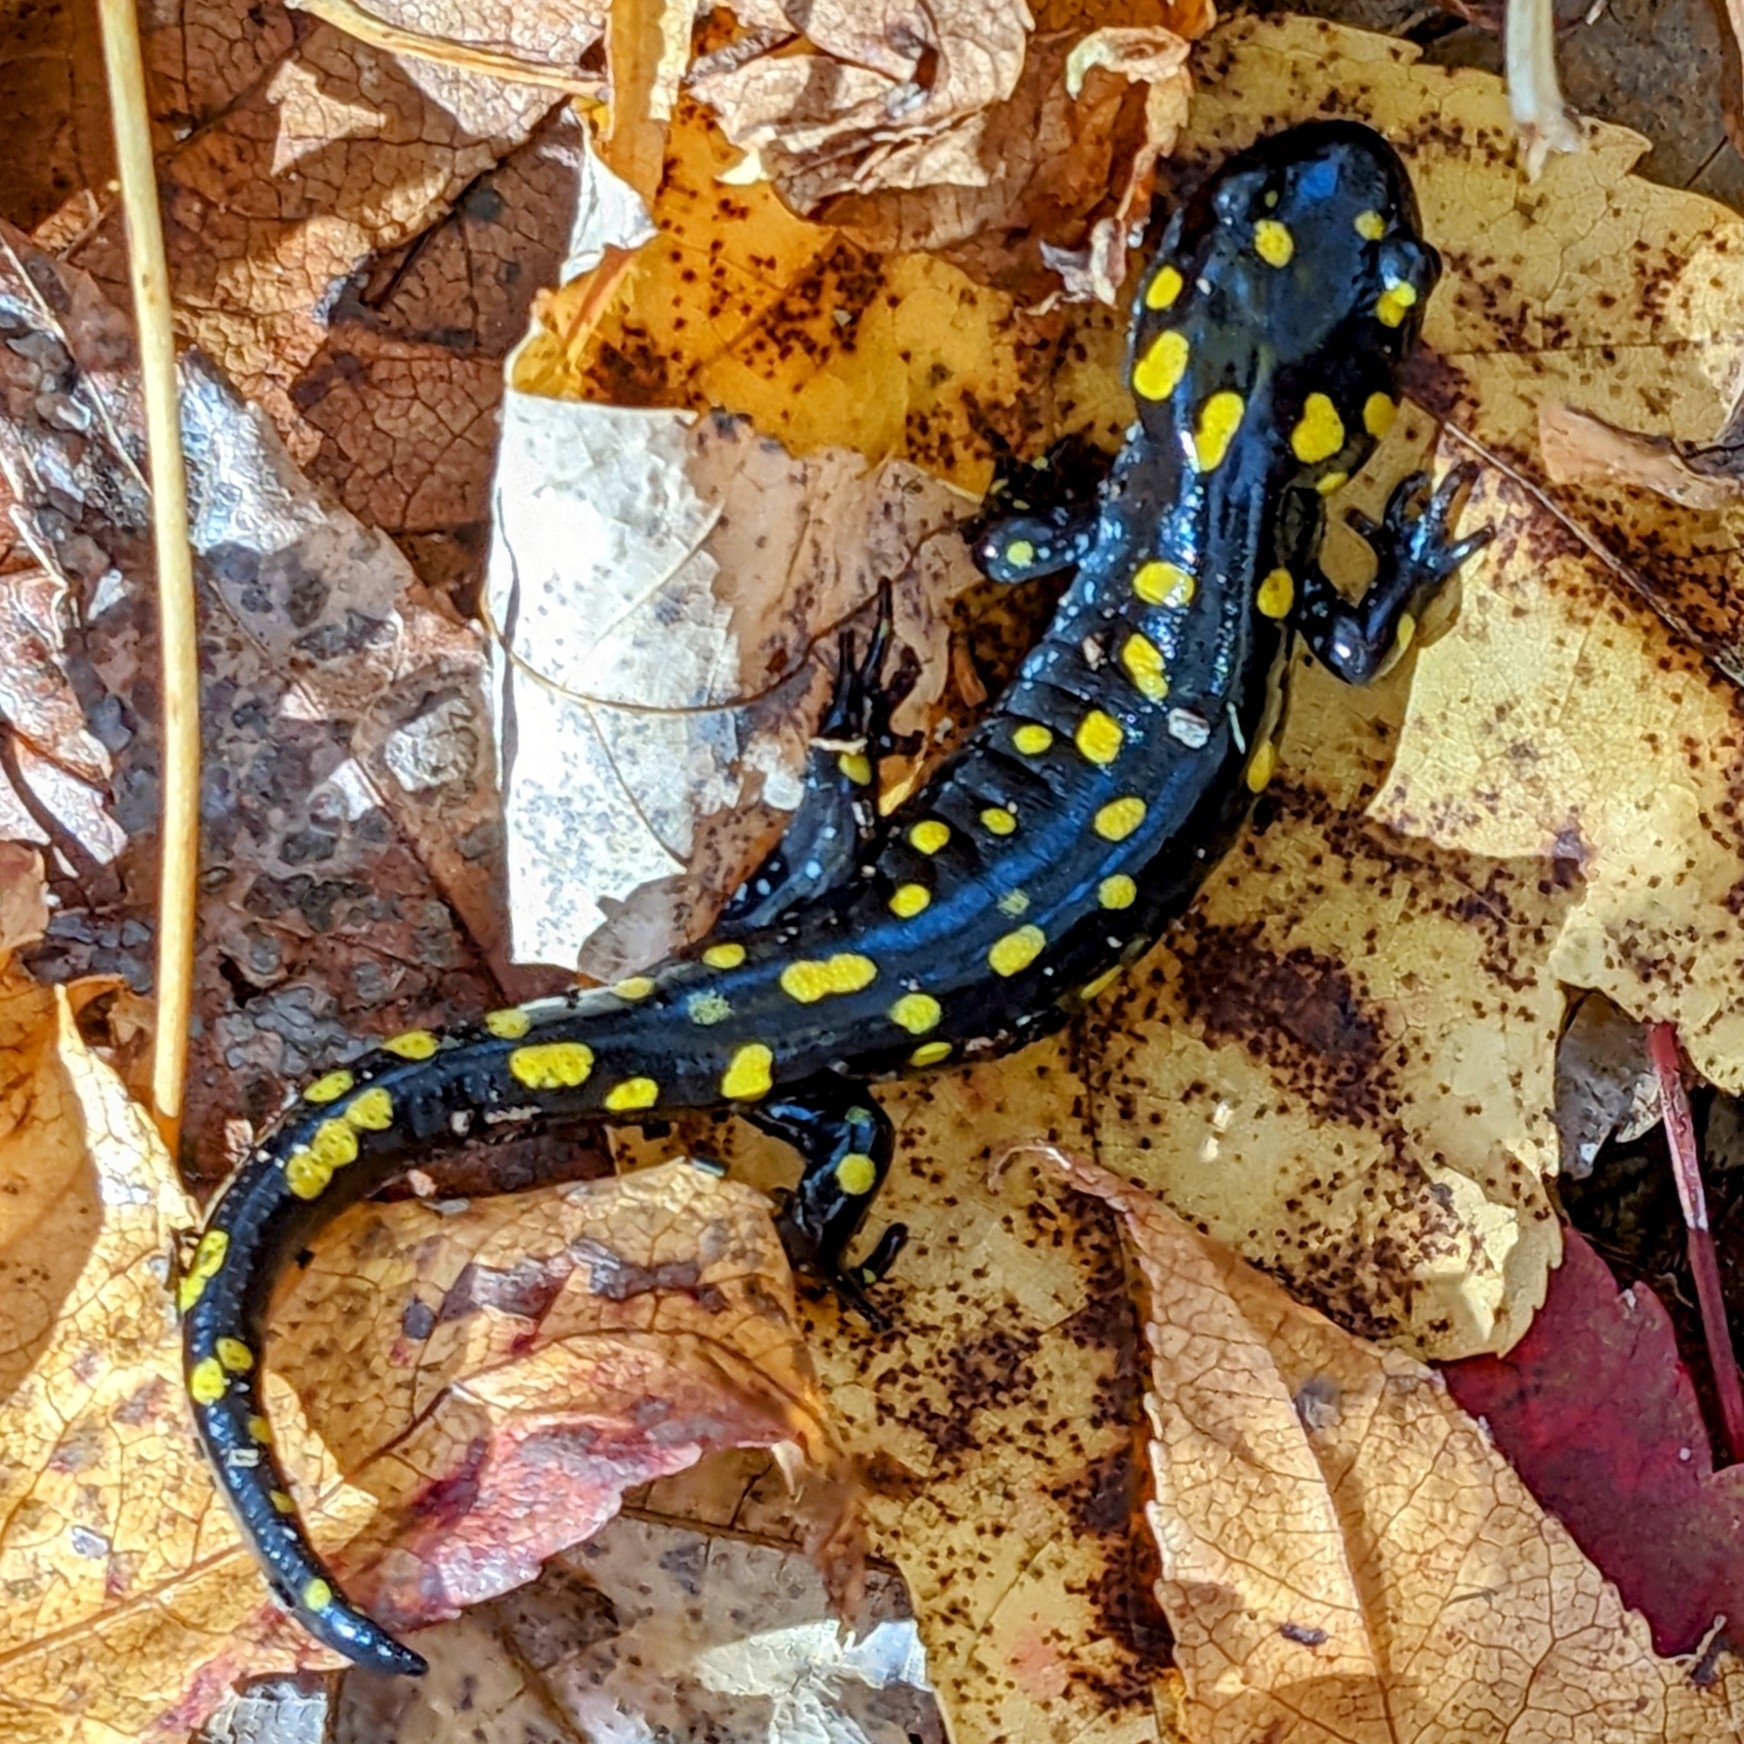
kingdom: Animalia
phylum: Chordata
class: Amphibia
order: Caudata
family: Ambystomatidae
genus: Ambystoma
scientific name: Ambystoma maculatum
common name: Spotted salamander
